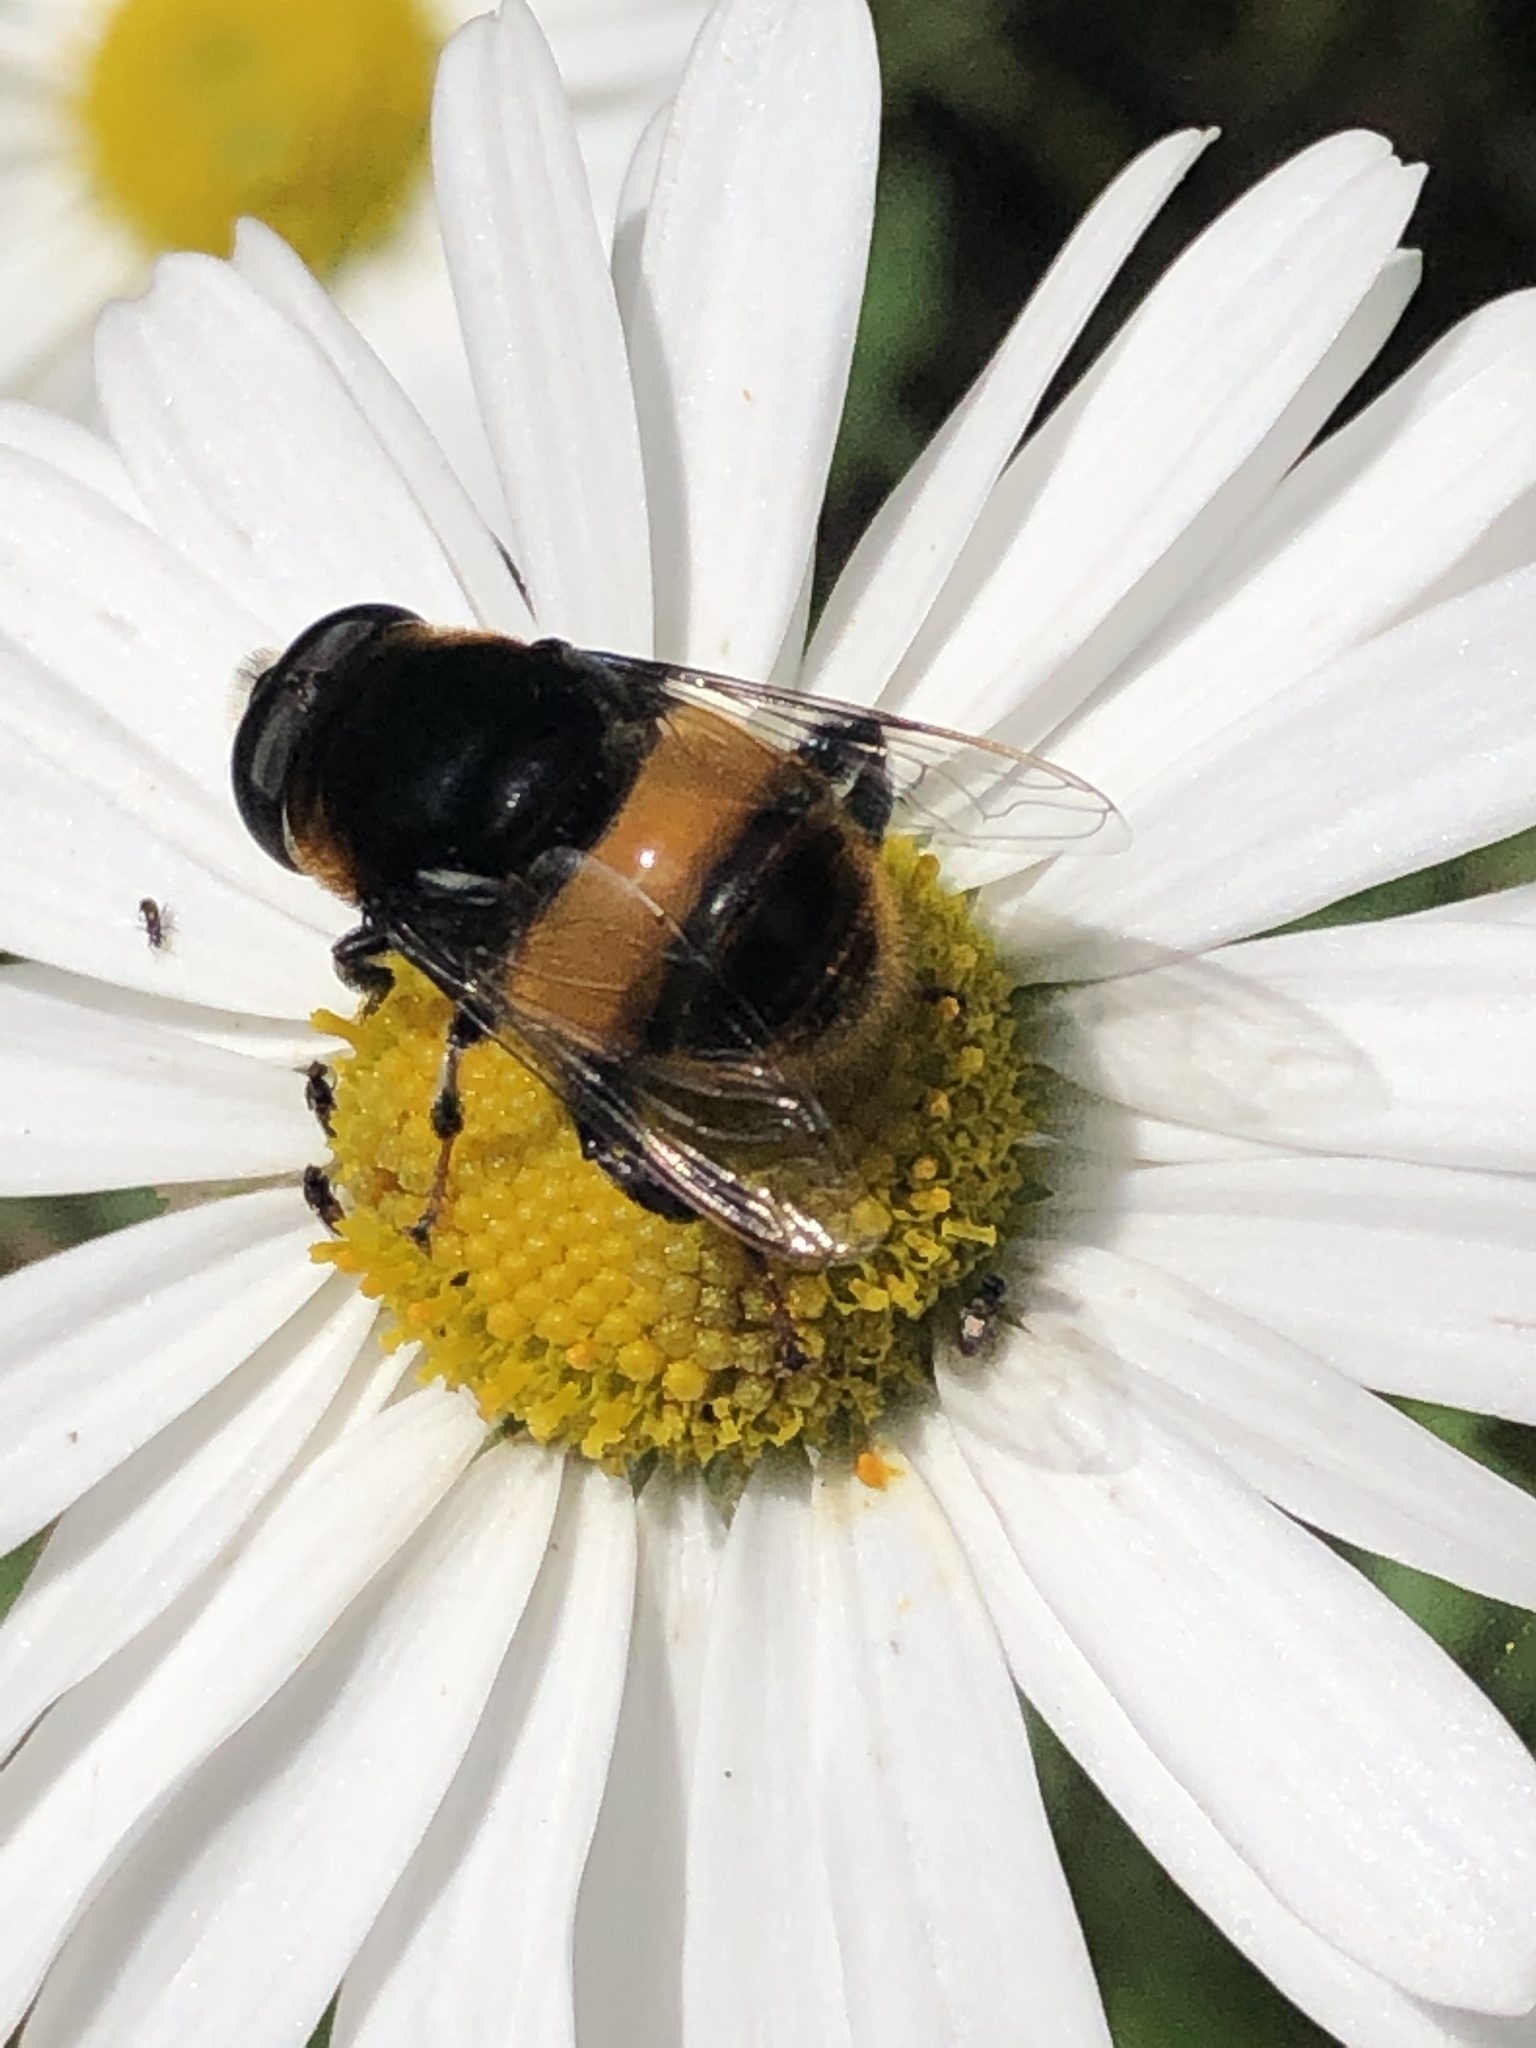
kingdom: Animalia
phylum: Arthropoda
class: Insecta
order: Diptera
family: Syrphidae
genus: Phytomia
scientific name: Phytomia zonata
